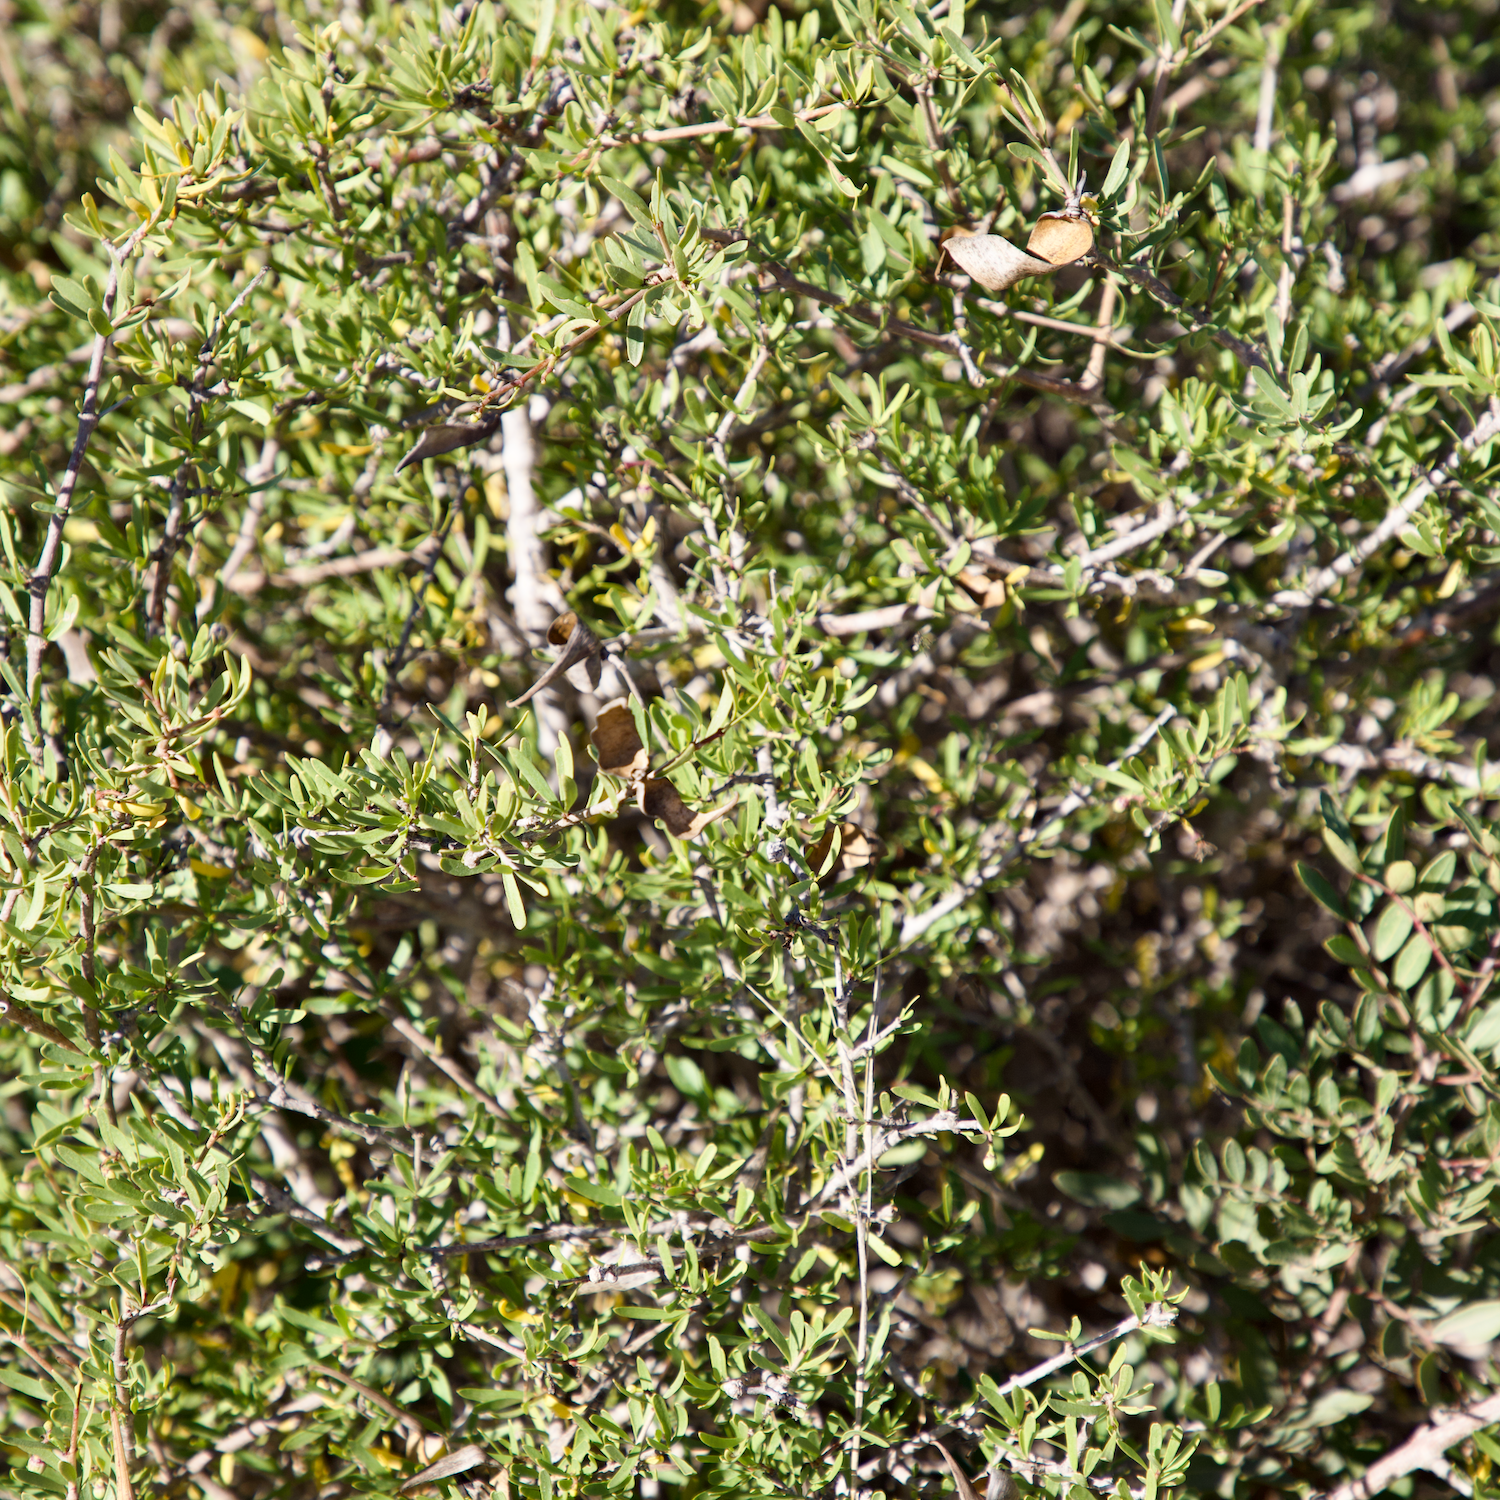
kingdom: Plantae
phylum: Tracheophyta
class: Magnoliopsida
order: Gentianales
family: Apocynaceae
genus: Periploca
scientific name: Periploca laevigata
